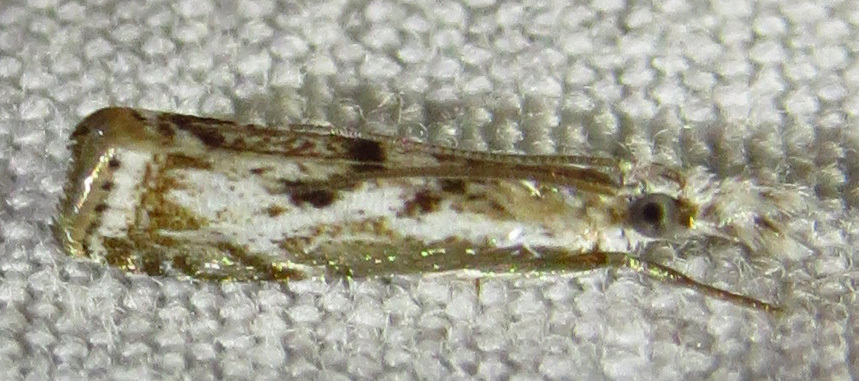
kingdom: Animalia
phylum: Arthropoda
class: Insecta
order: Lepidoptera
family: Crambidae
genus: Microcrambus
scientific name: Microcrambus kimballi
